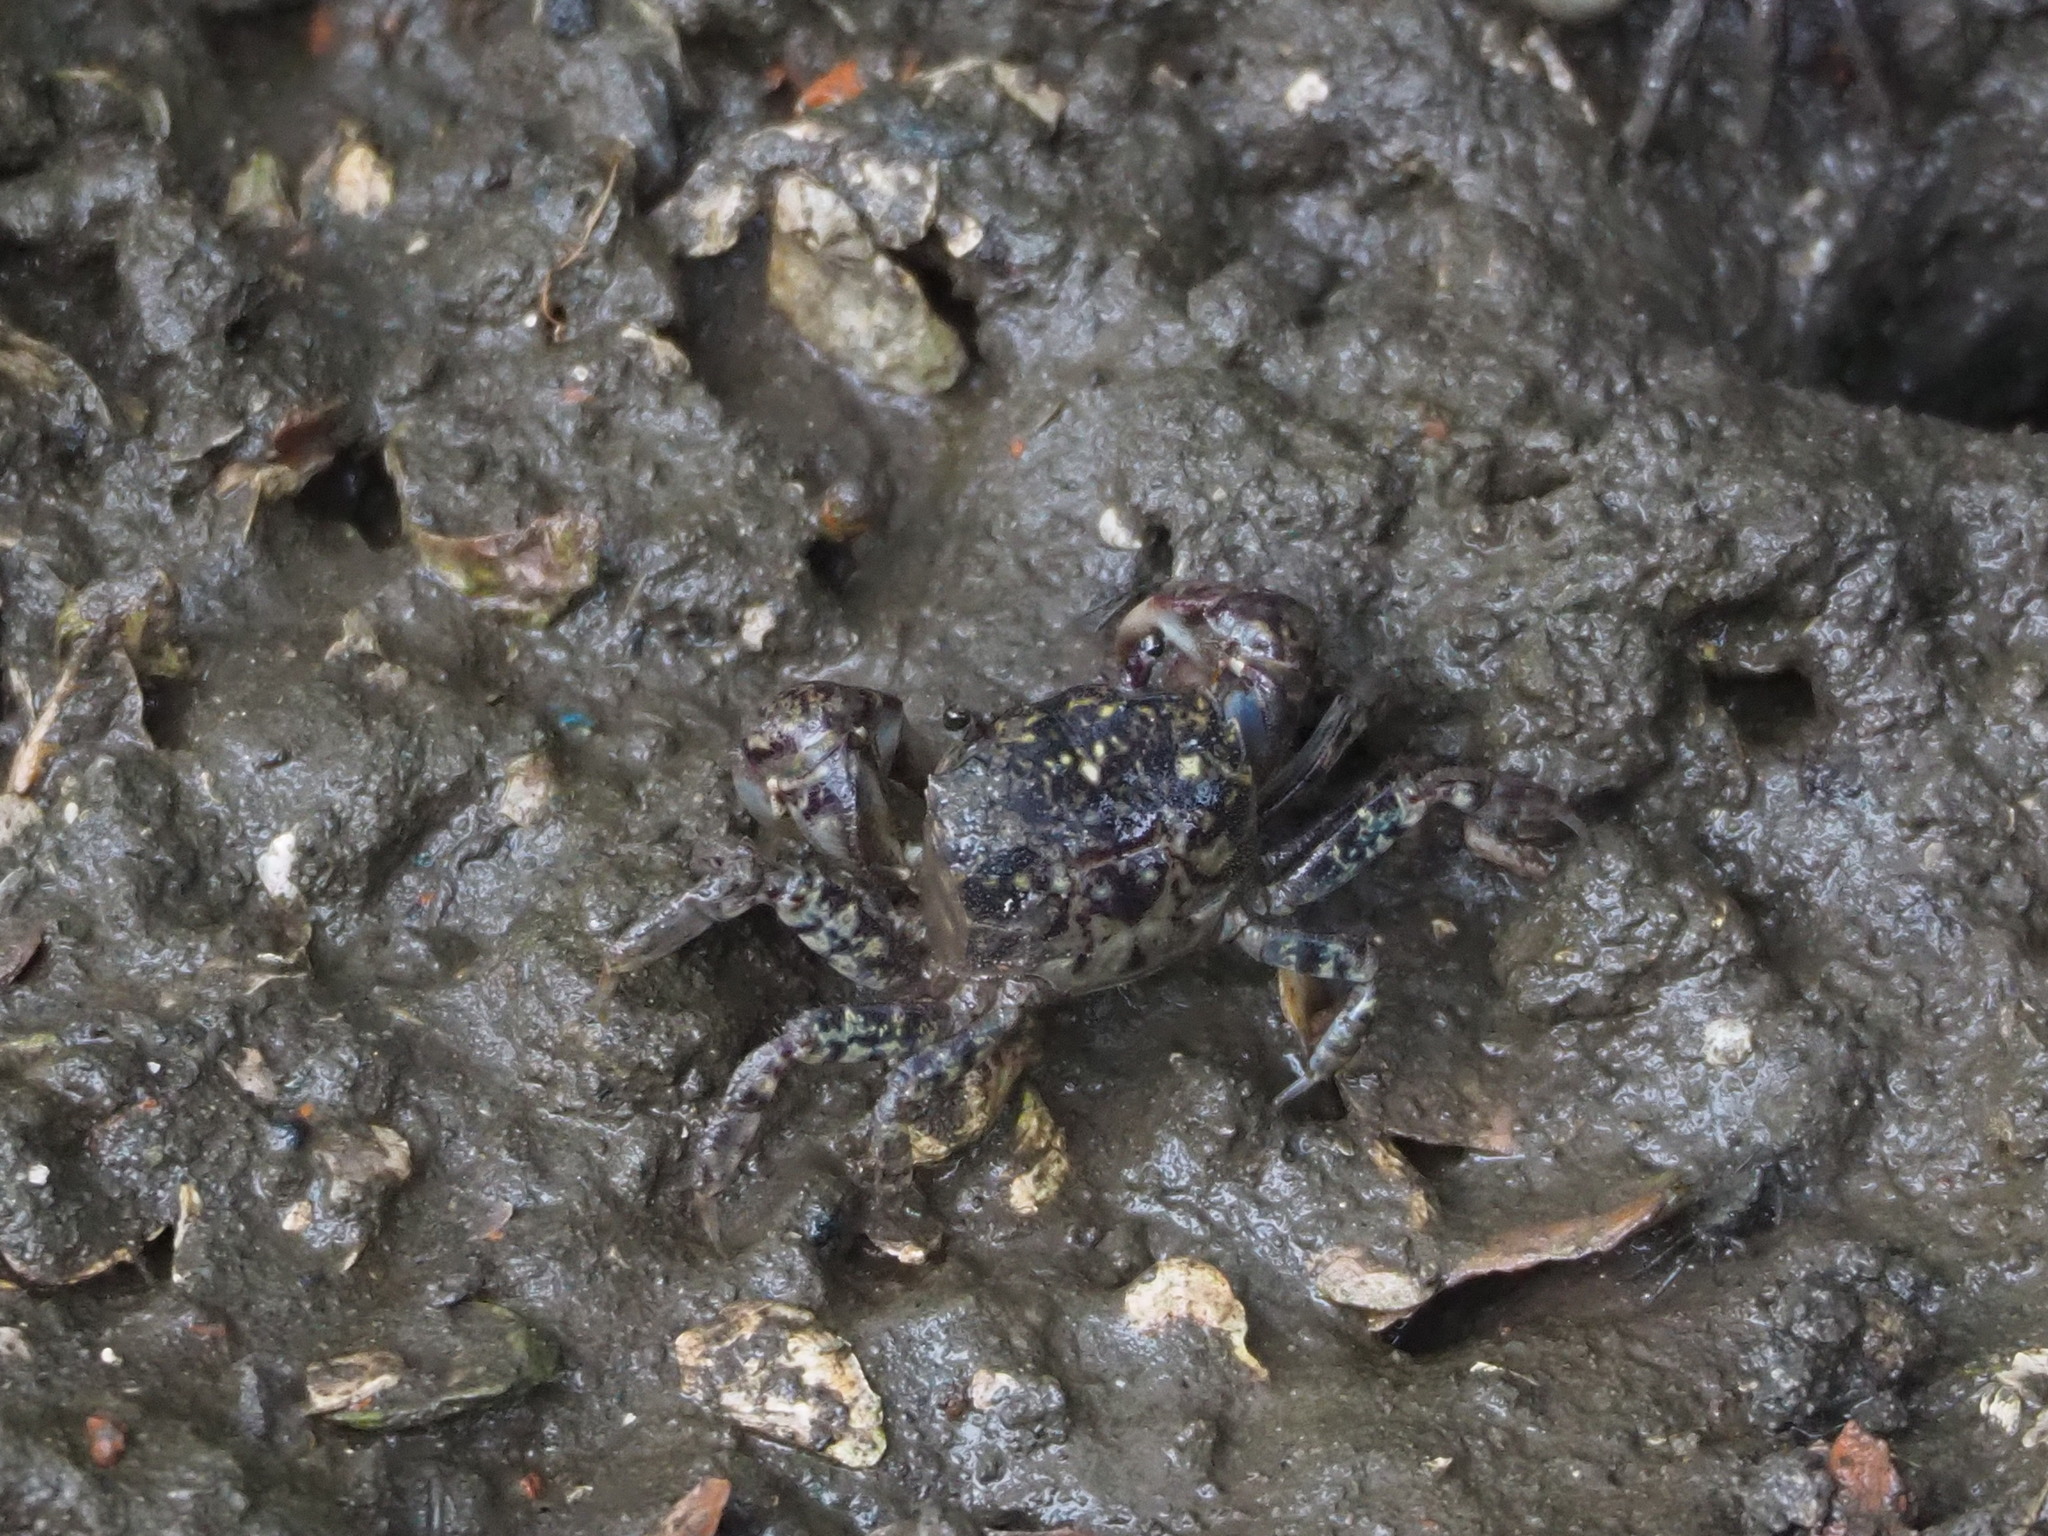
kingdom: Animalia
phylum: Arthropoda
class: Malacostraca
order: Decapoda
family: Varunidae
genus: Pseudohelice
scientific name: Pseudohelice subquadrata
